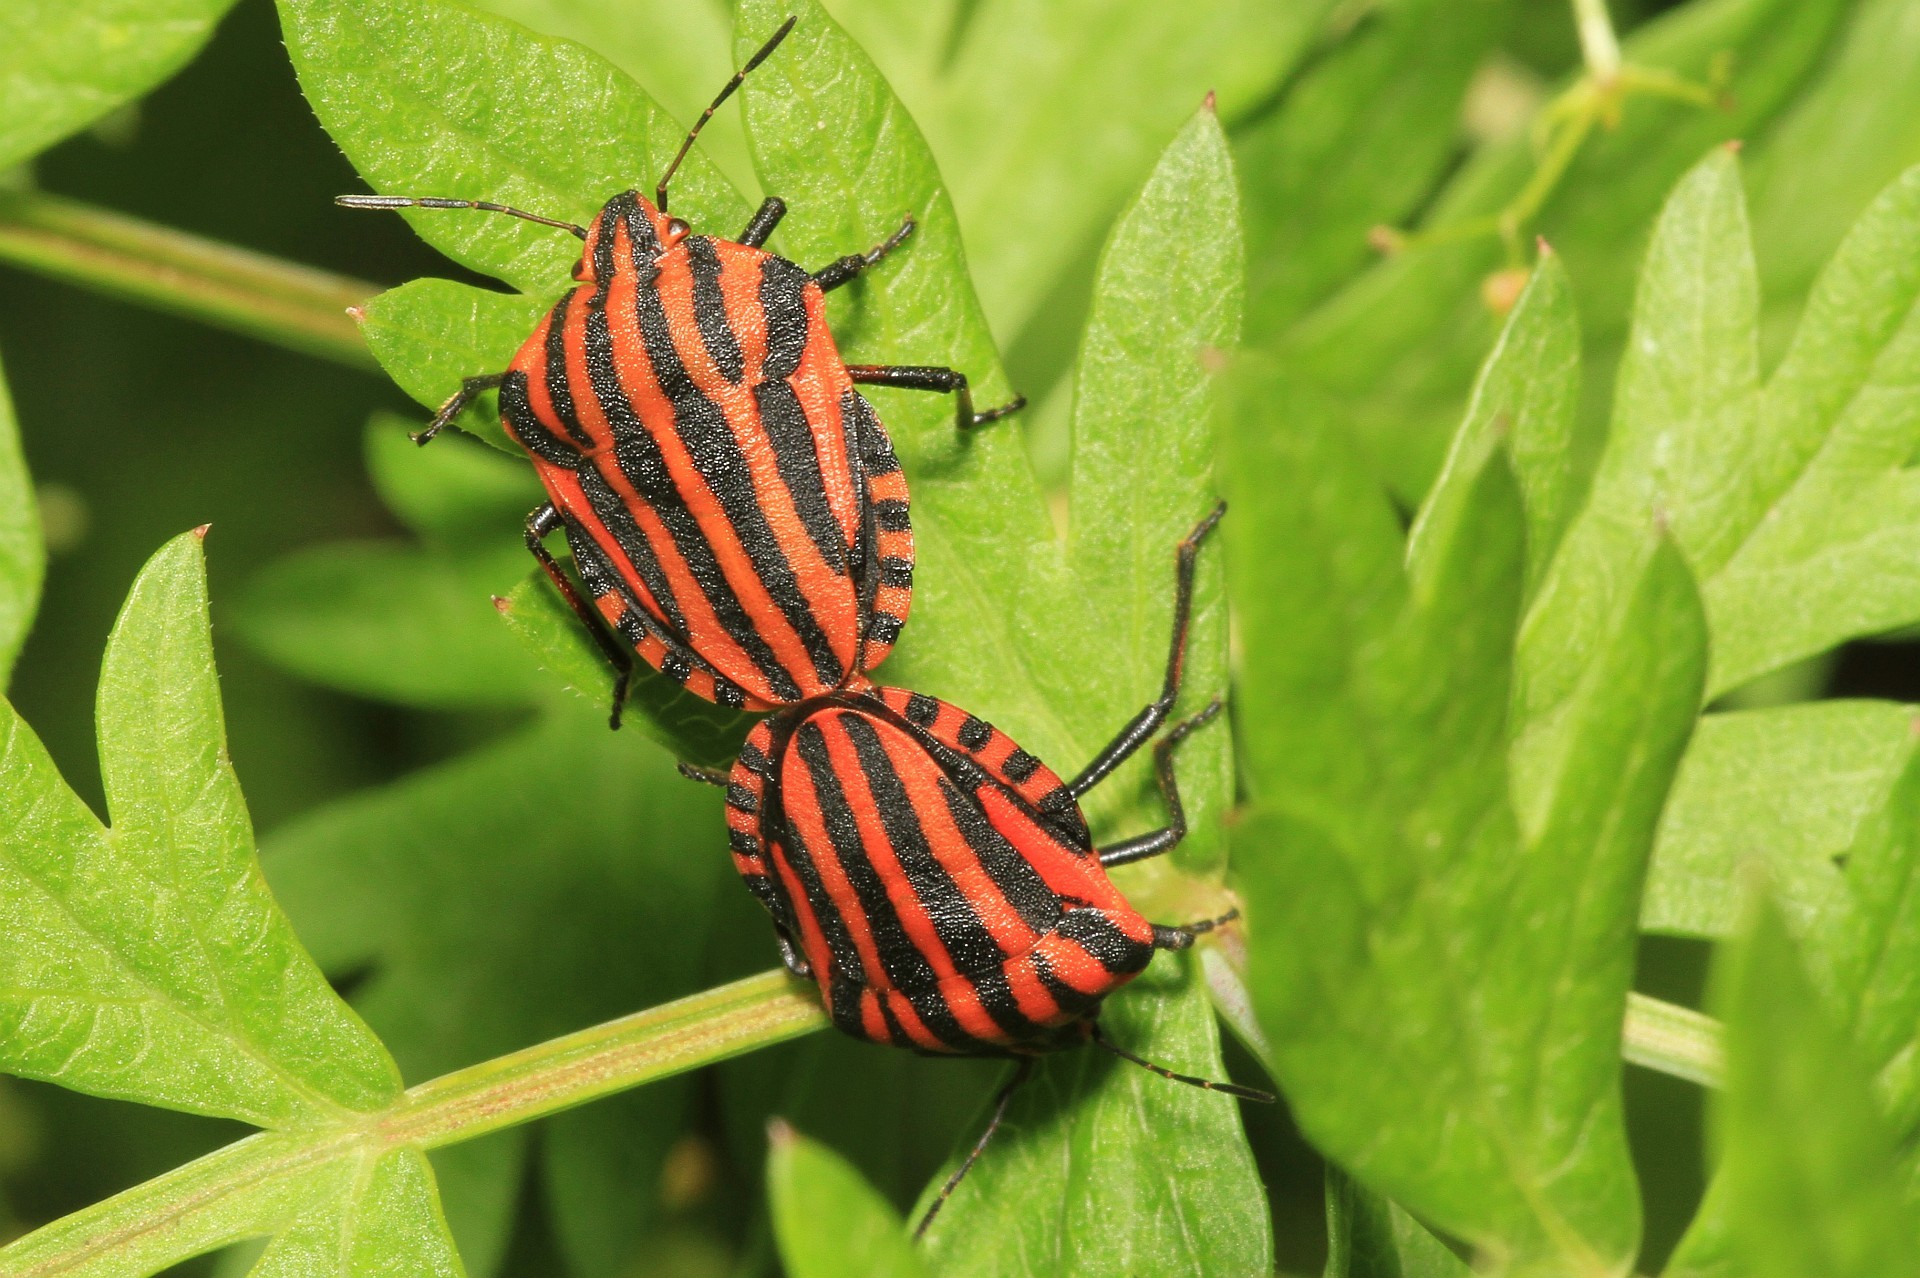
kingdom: Animalia
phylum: Arthropoda
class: Insecta
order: Hemiptera
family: Pentatomidae
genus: Graphosoma
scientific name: Graphosoma italicum
